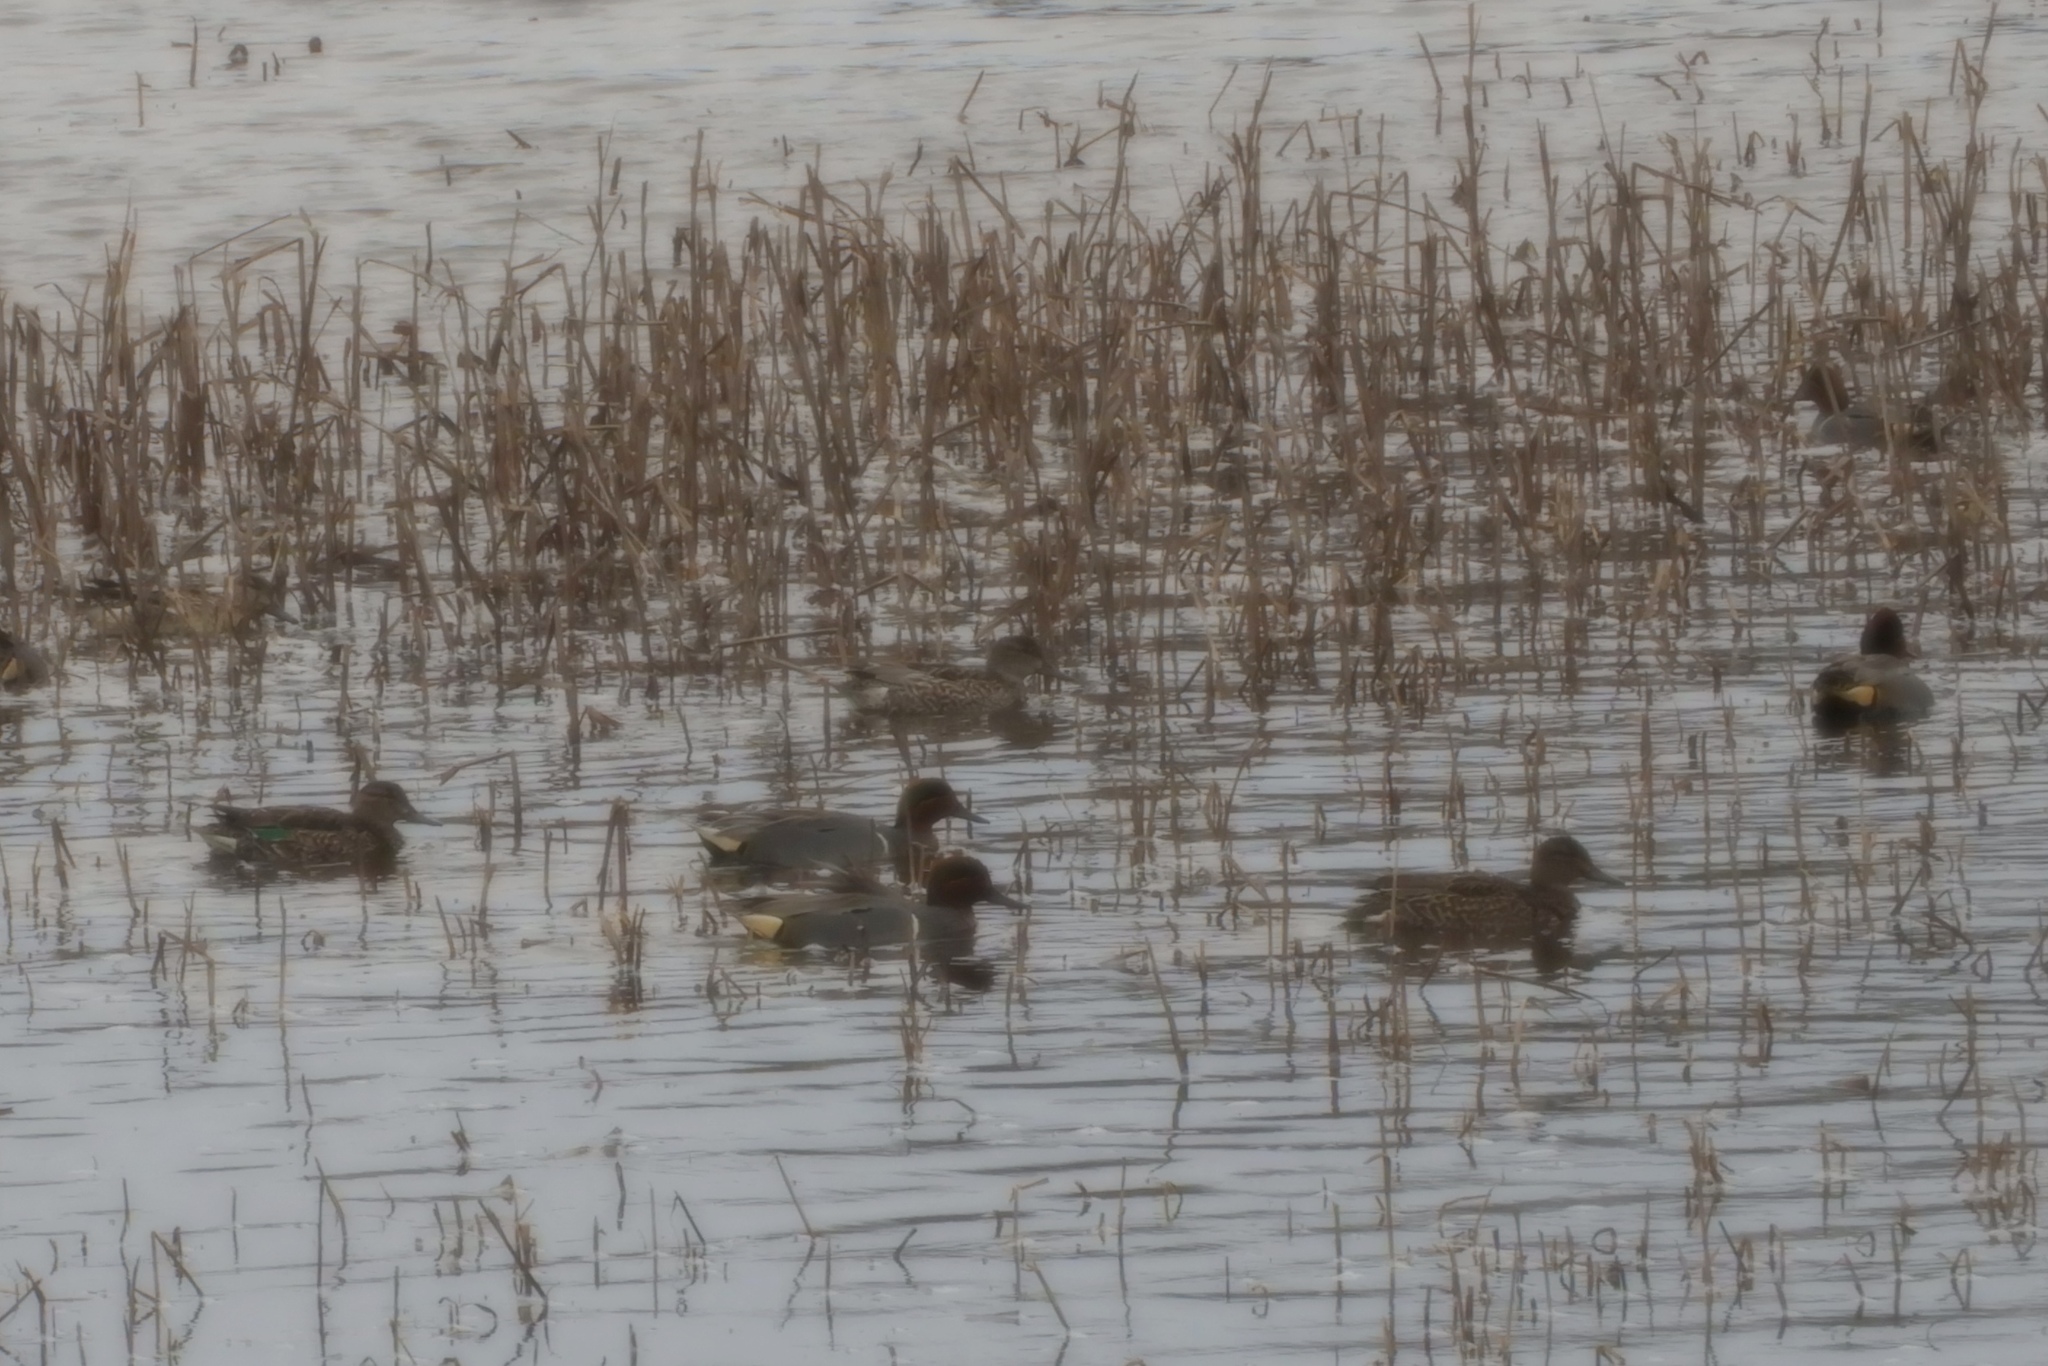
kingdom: Animalia
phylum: Chordata
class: Aves
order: Anseriformes
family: Anatidae
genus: Anas
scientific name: Anas crecca
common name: Eurasian teal
